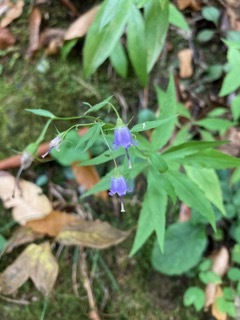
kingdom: Plantae
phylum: Tracheophyta
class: Magnoliopsida
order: Asterales
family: Campanulaceae
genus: Campanula
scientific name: Campanula divaricata
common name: Appalachian bellflower
